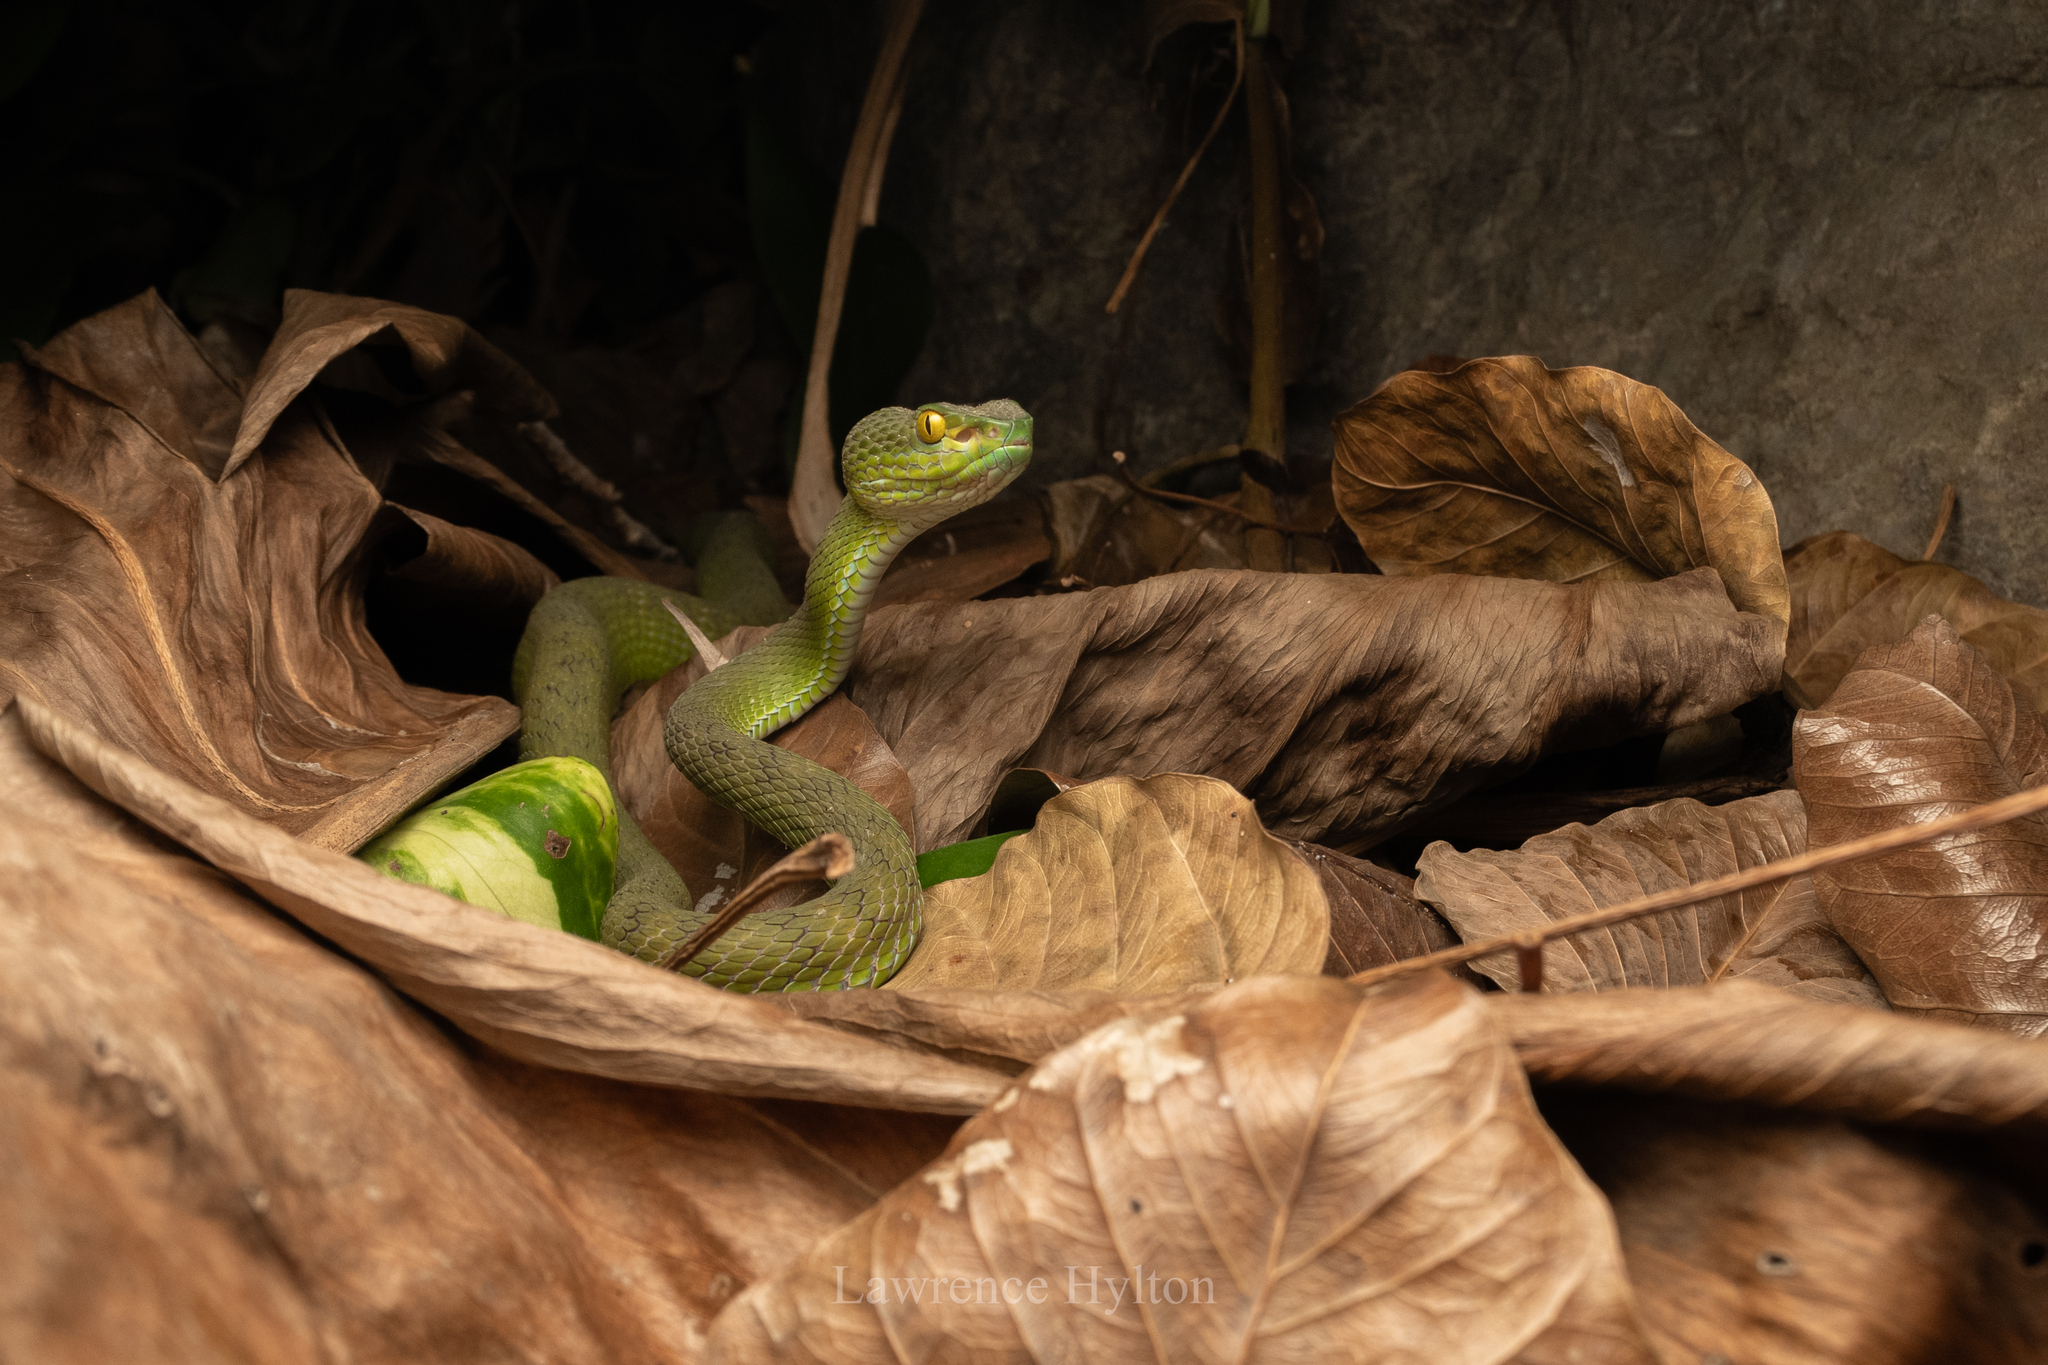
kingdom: Animalia
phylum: Chordata
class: Squamata
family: Viperidae
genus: Trimeresurus
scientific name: Trimeresurus macrops
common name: Kramer's pit viper
